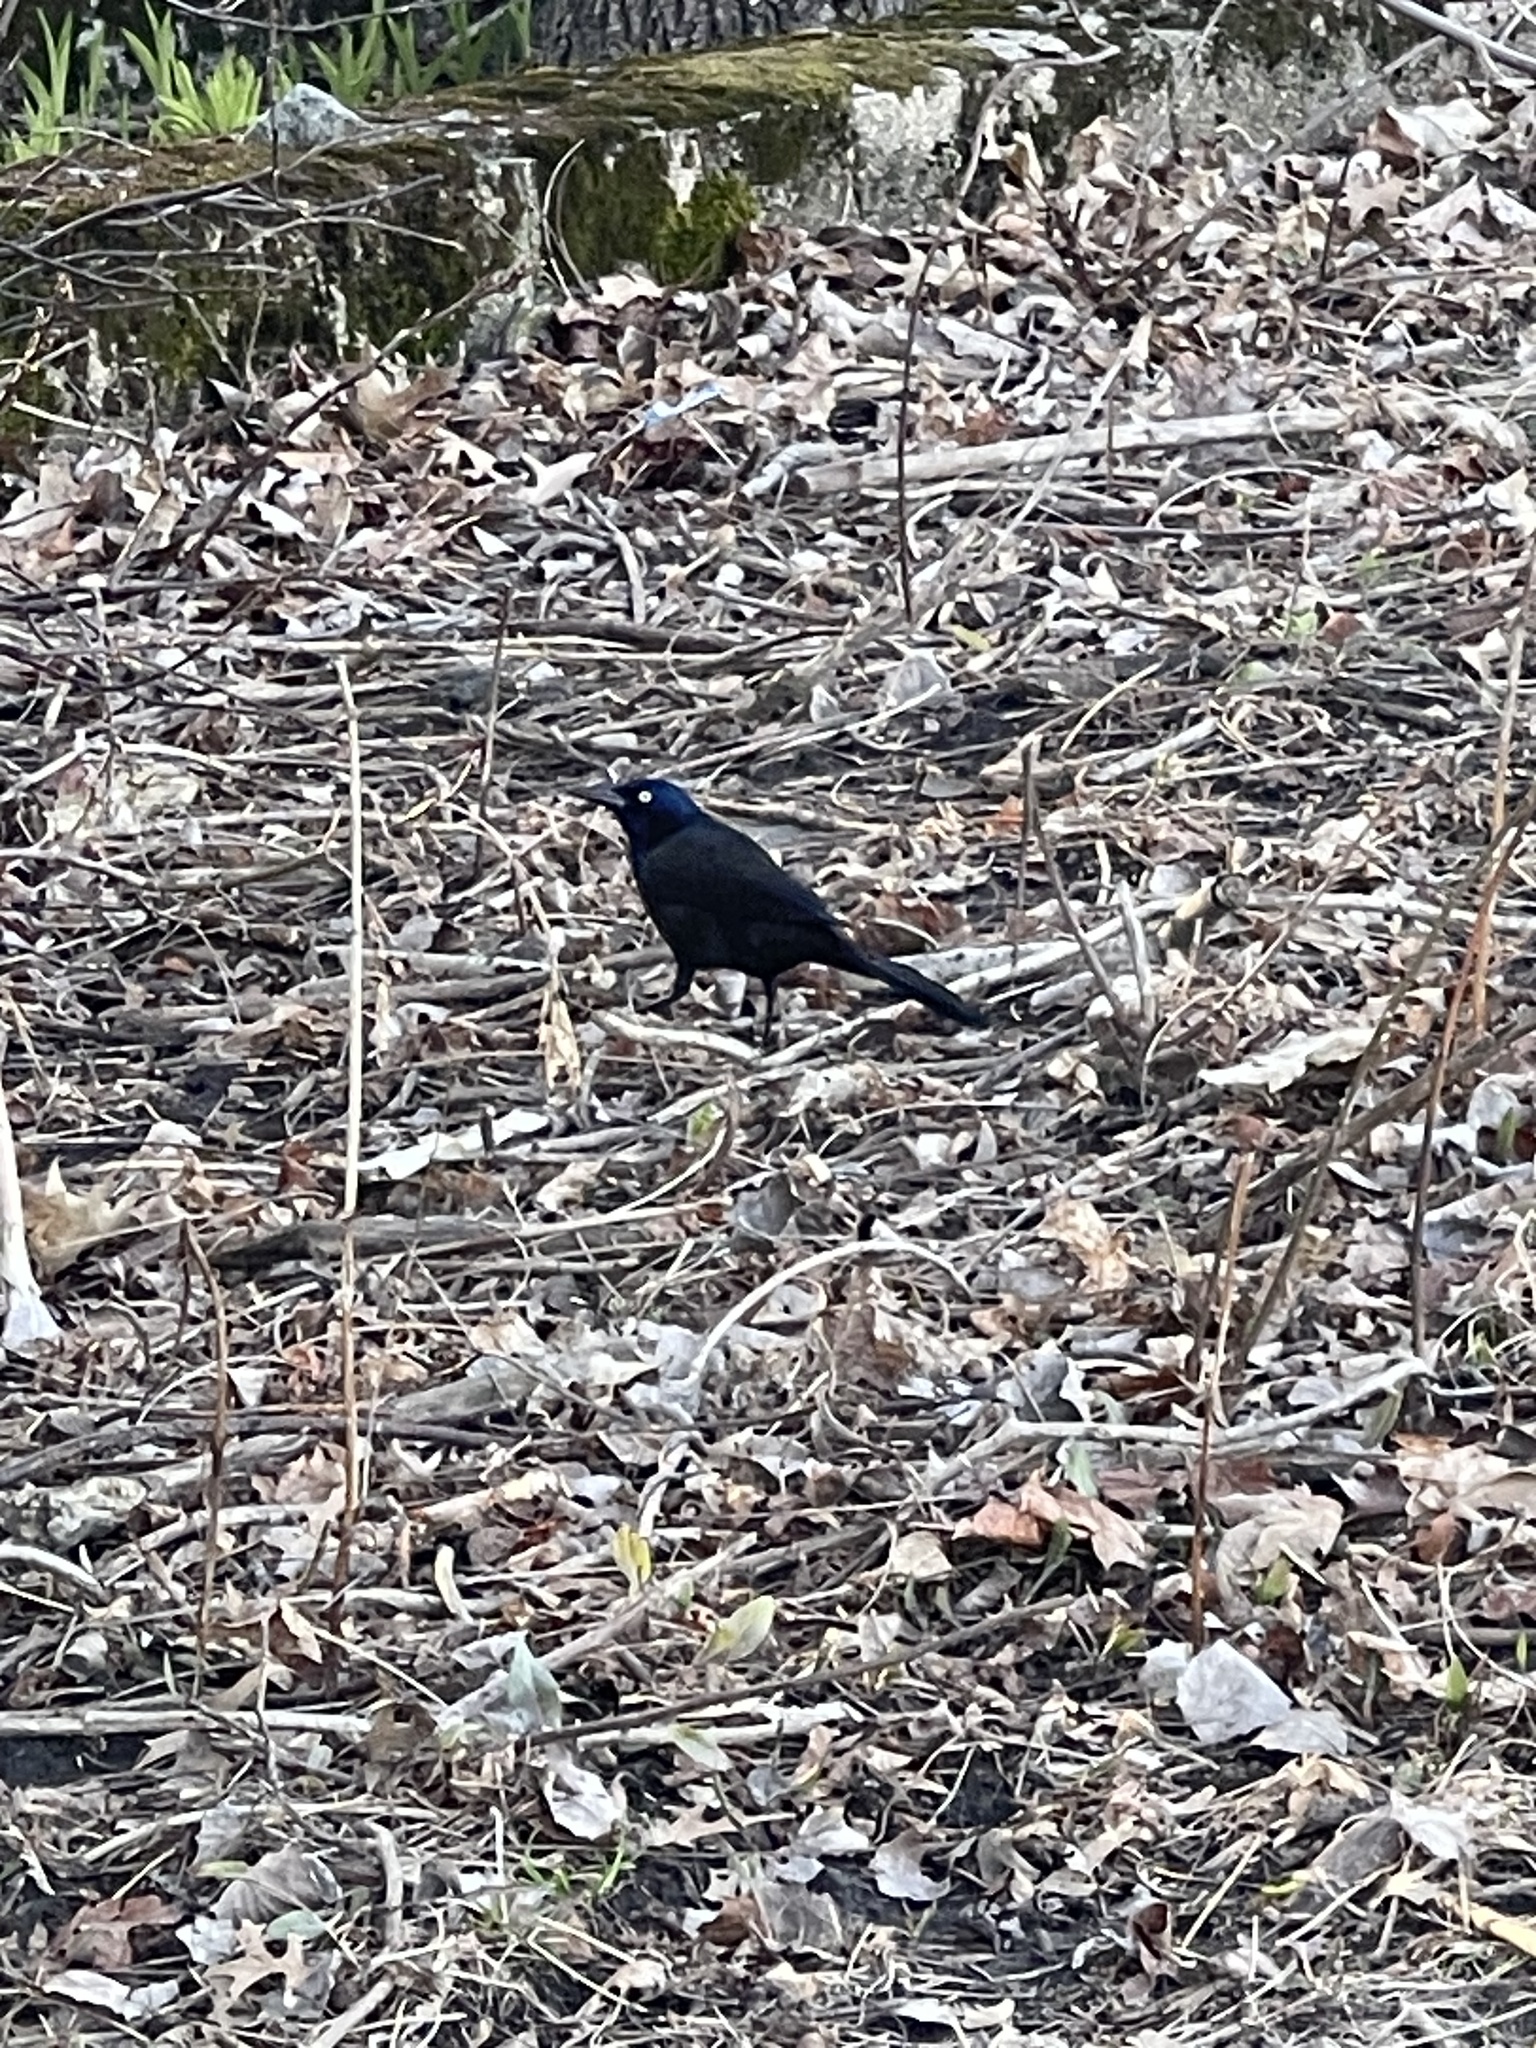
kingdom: Animalia
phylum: Chordata
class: Aves
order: Passeriformes
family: Icteridae
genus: Quiscalus
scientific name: Quiscalus quiscula
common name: Common grackle
